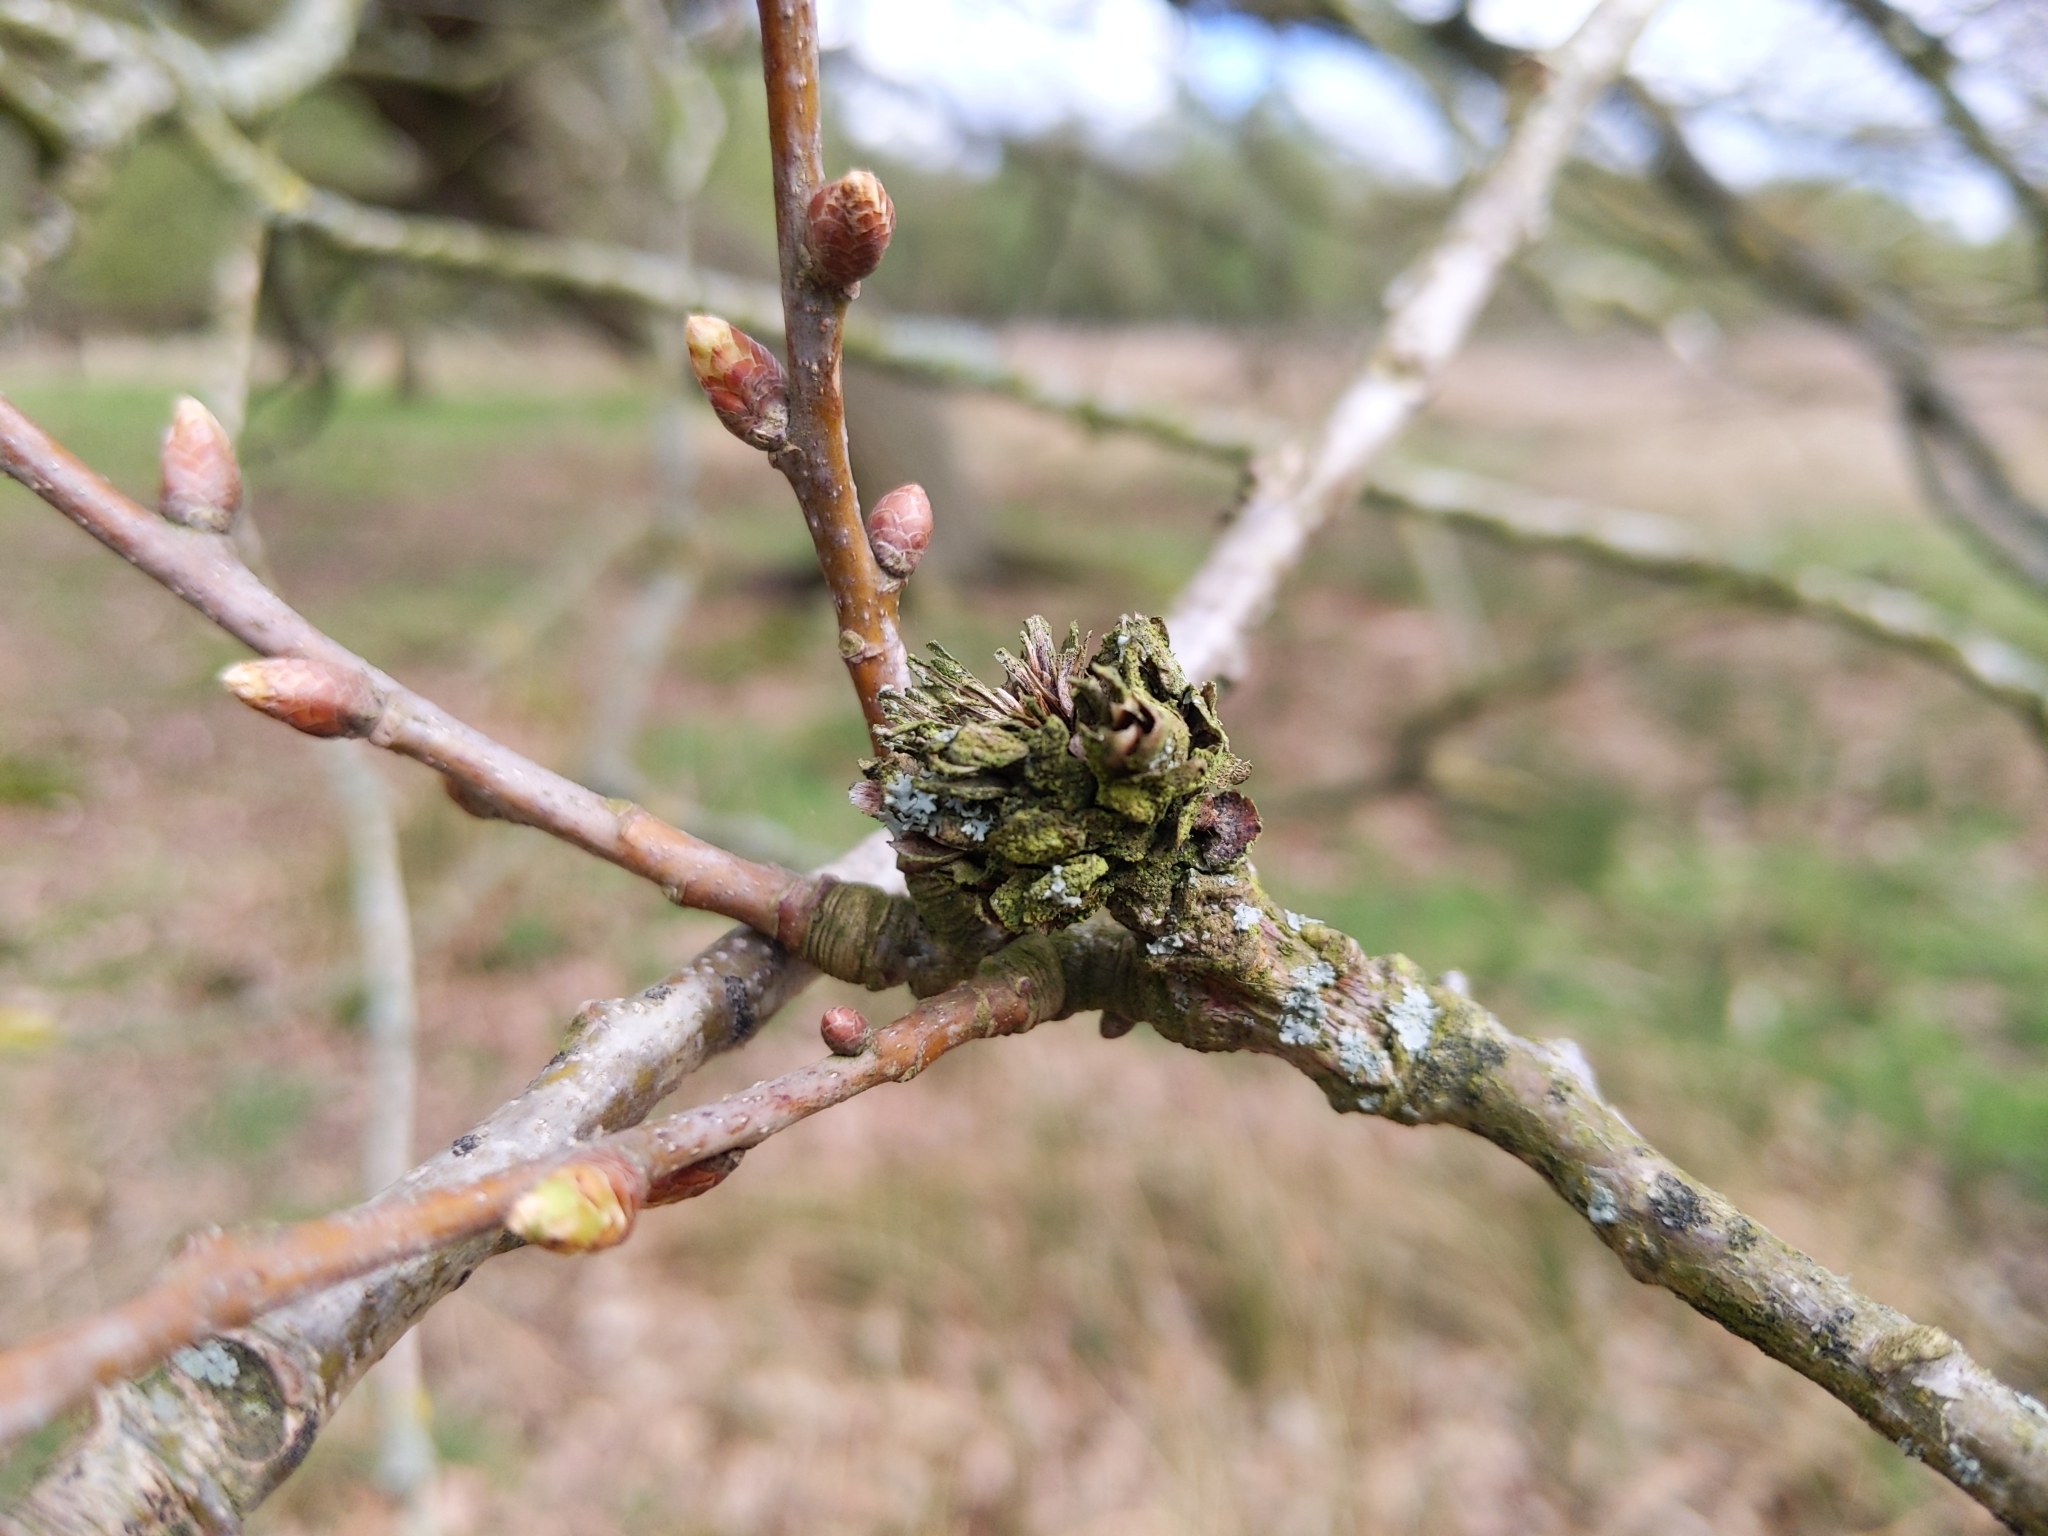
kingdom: Animalia
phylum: Arthropoda
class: Insecta
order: Hymenoptera
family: Cynipidae
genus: Andricus
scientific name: Andricus foecundatrix
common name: Artichoke gall
